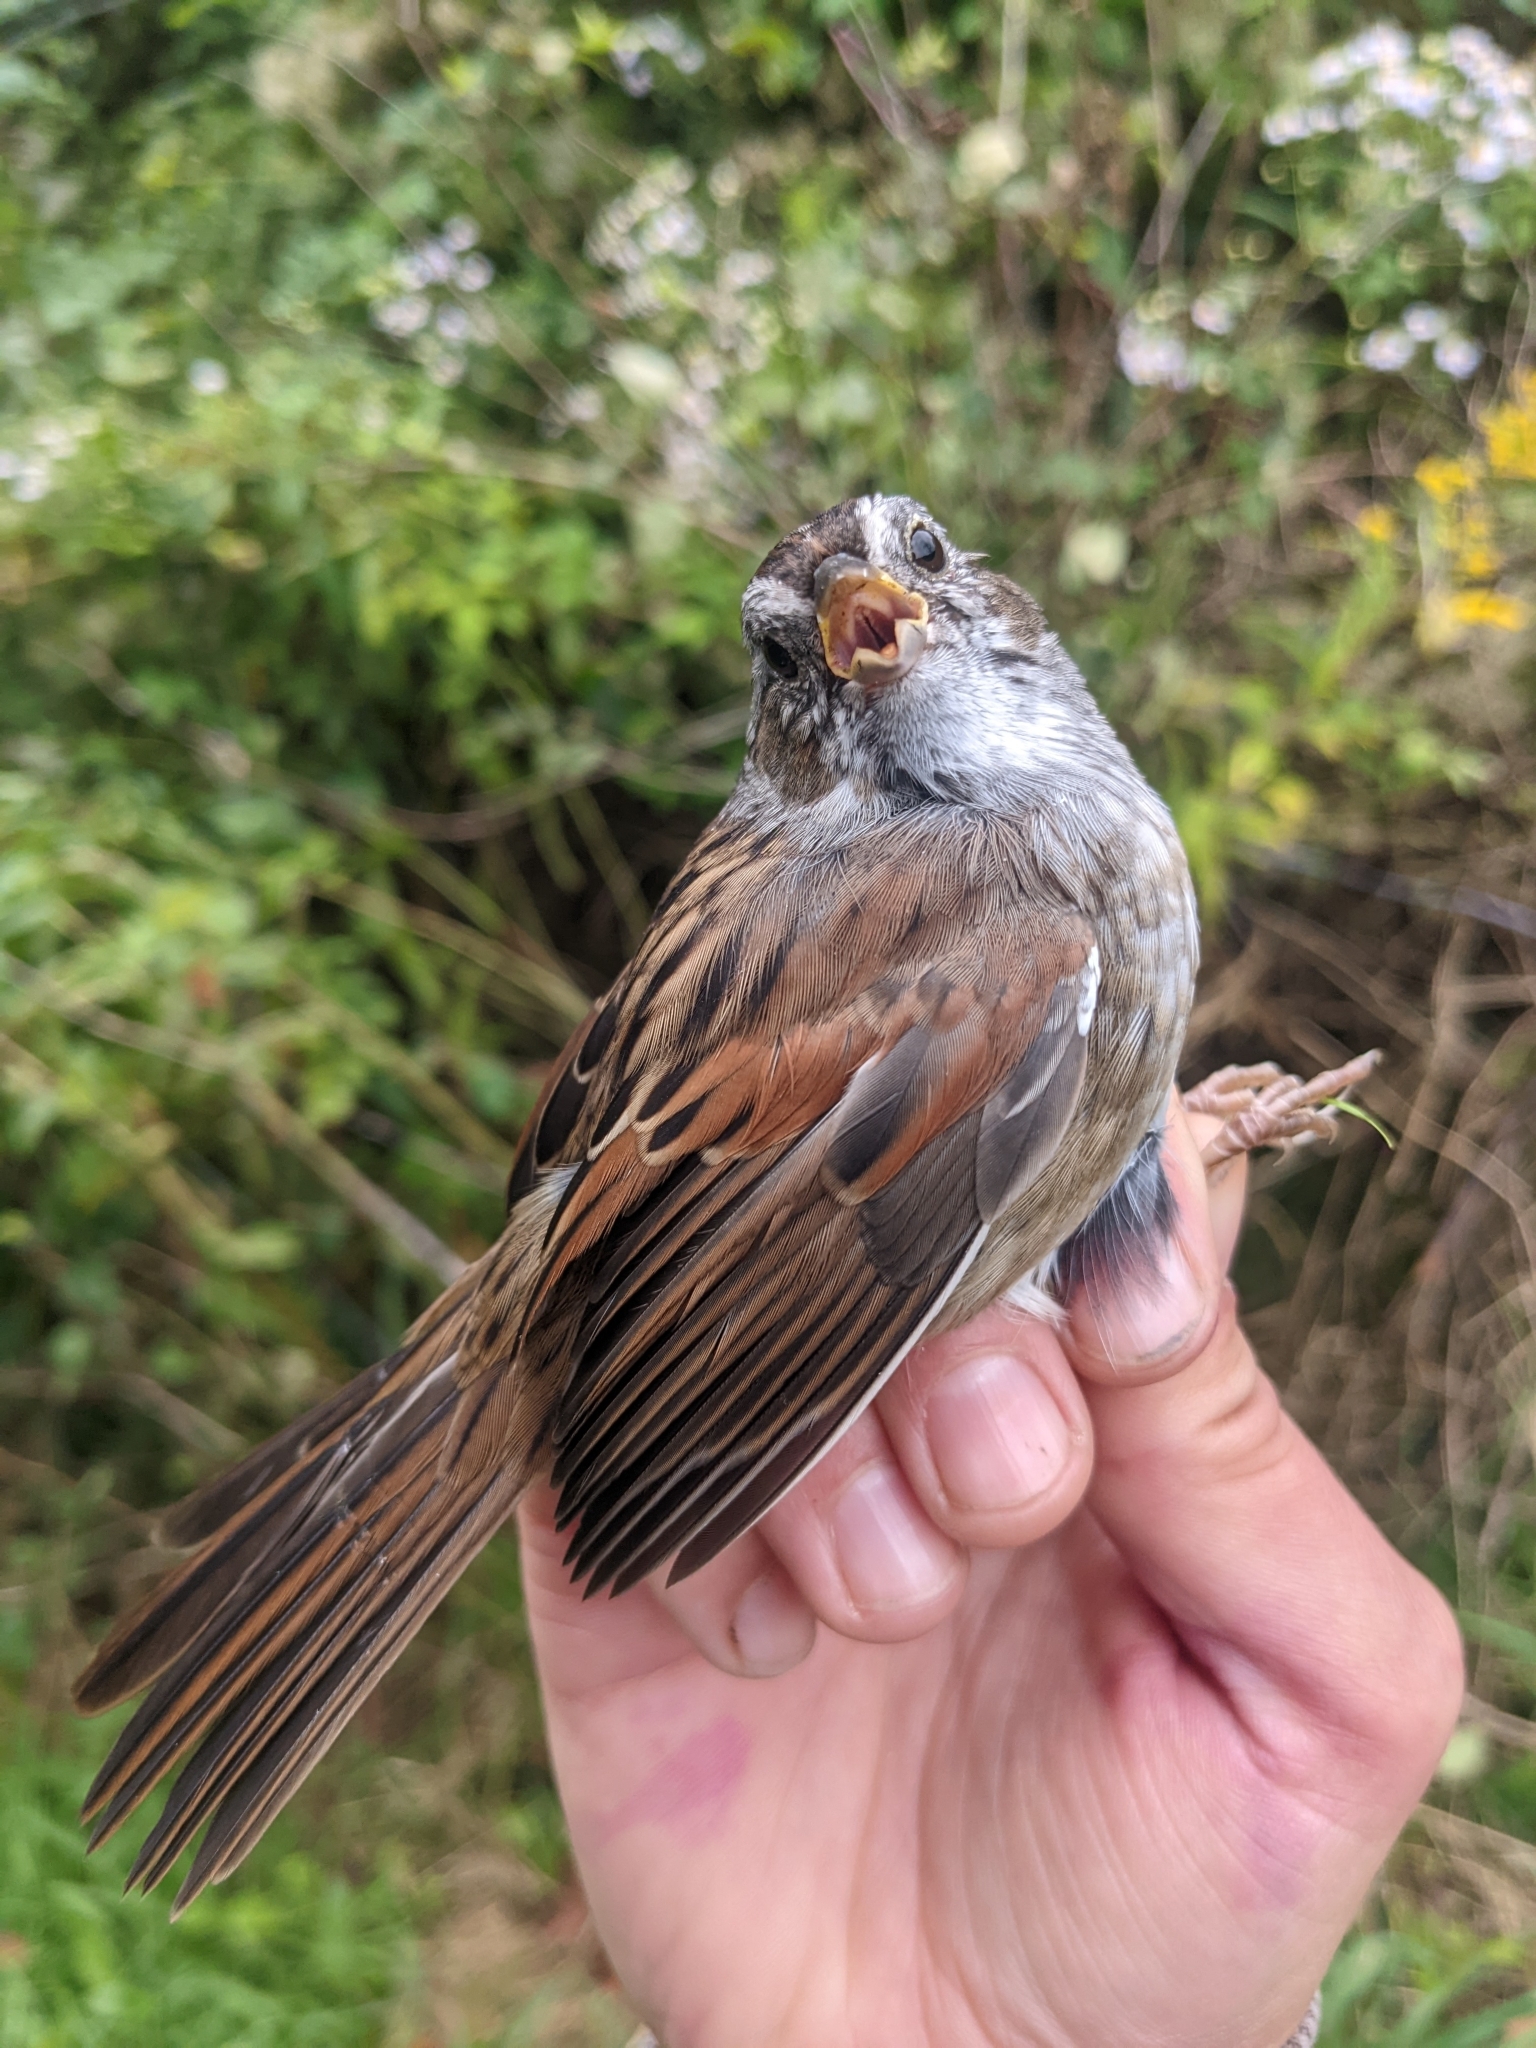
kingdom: Animalia
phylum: Chordata
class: Aves
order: Passeriformes
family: Passerellidae
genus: Melospiza
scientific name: Melospiza georgiana
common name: Swamp sparrow
